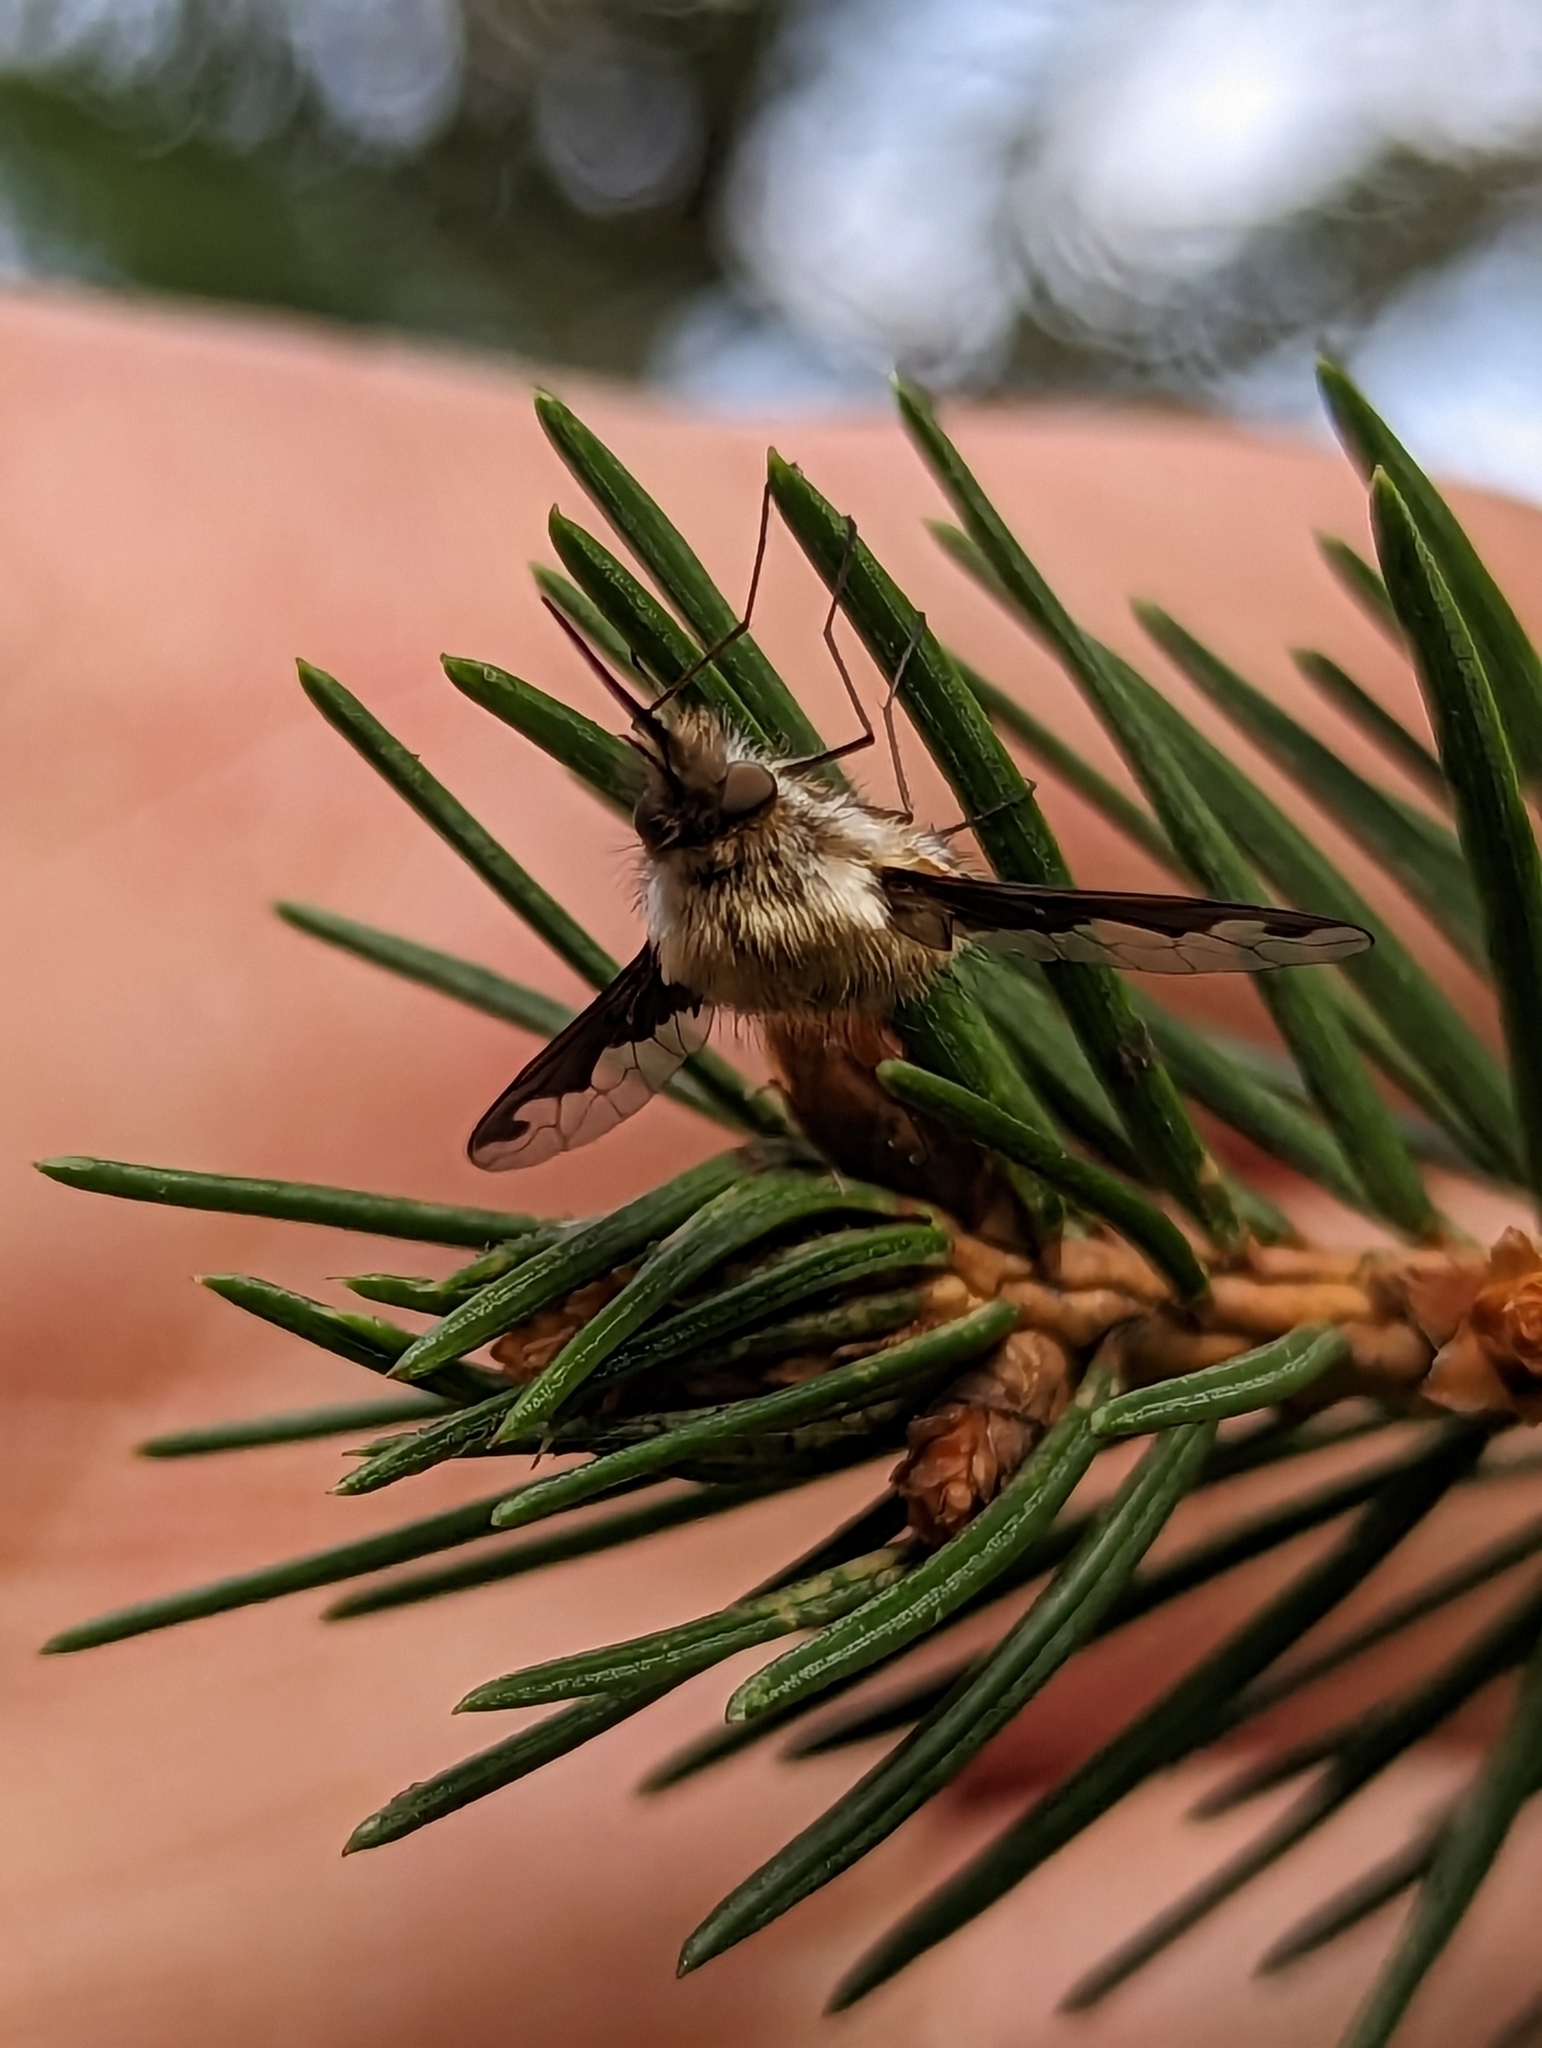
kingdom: Animalia
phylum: Arthropoda
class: Insecta
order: Diptera
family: Bombyliidae
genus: Bombylius
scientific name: Bombylius major
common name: Bee fly
